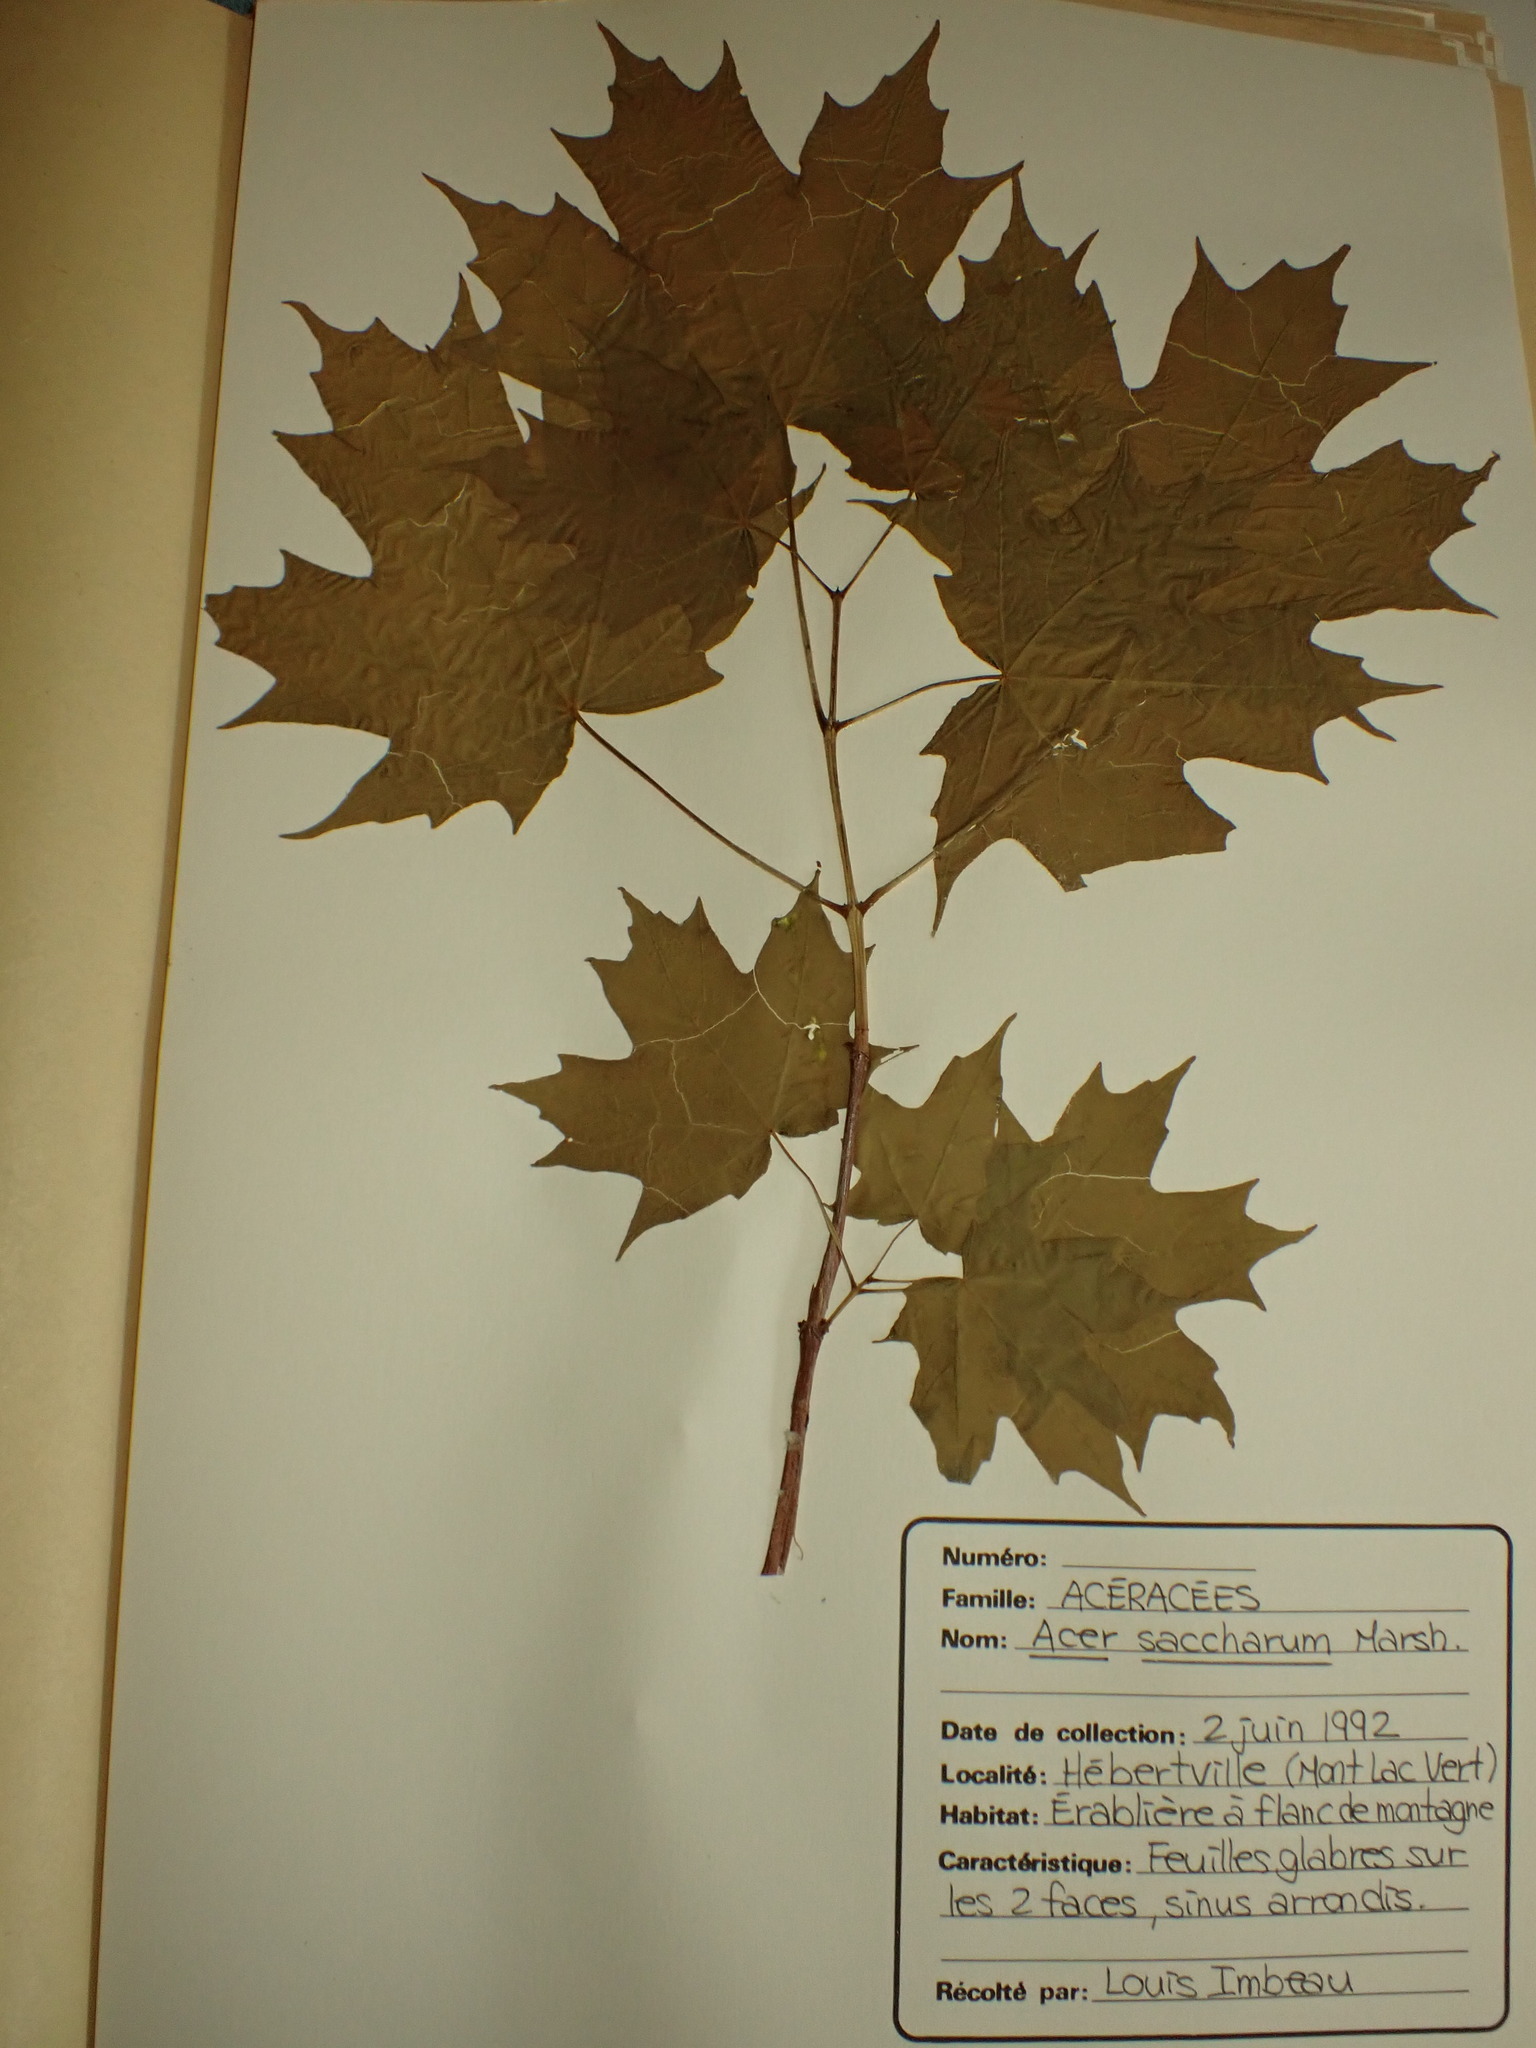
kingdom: Plantae
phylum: Tracheophyta
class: Magnoliopsida
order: Sapindales
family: Sapindaceae
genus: Acer
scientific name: Acer saccharum
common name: Sugar maple
